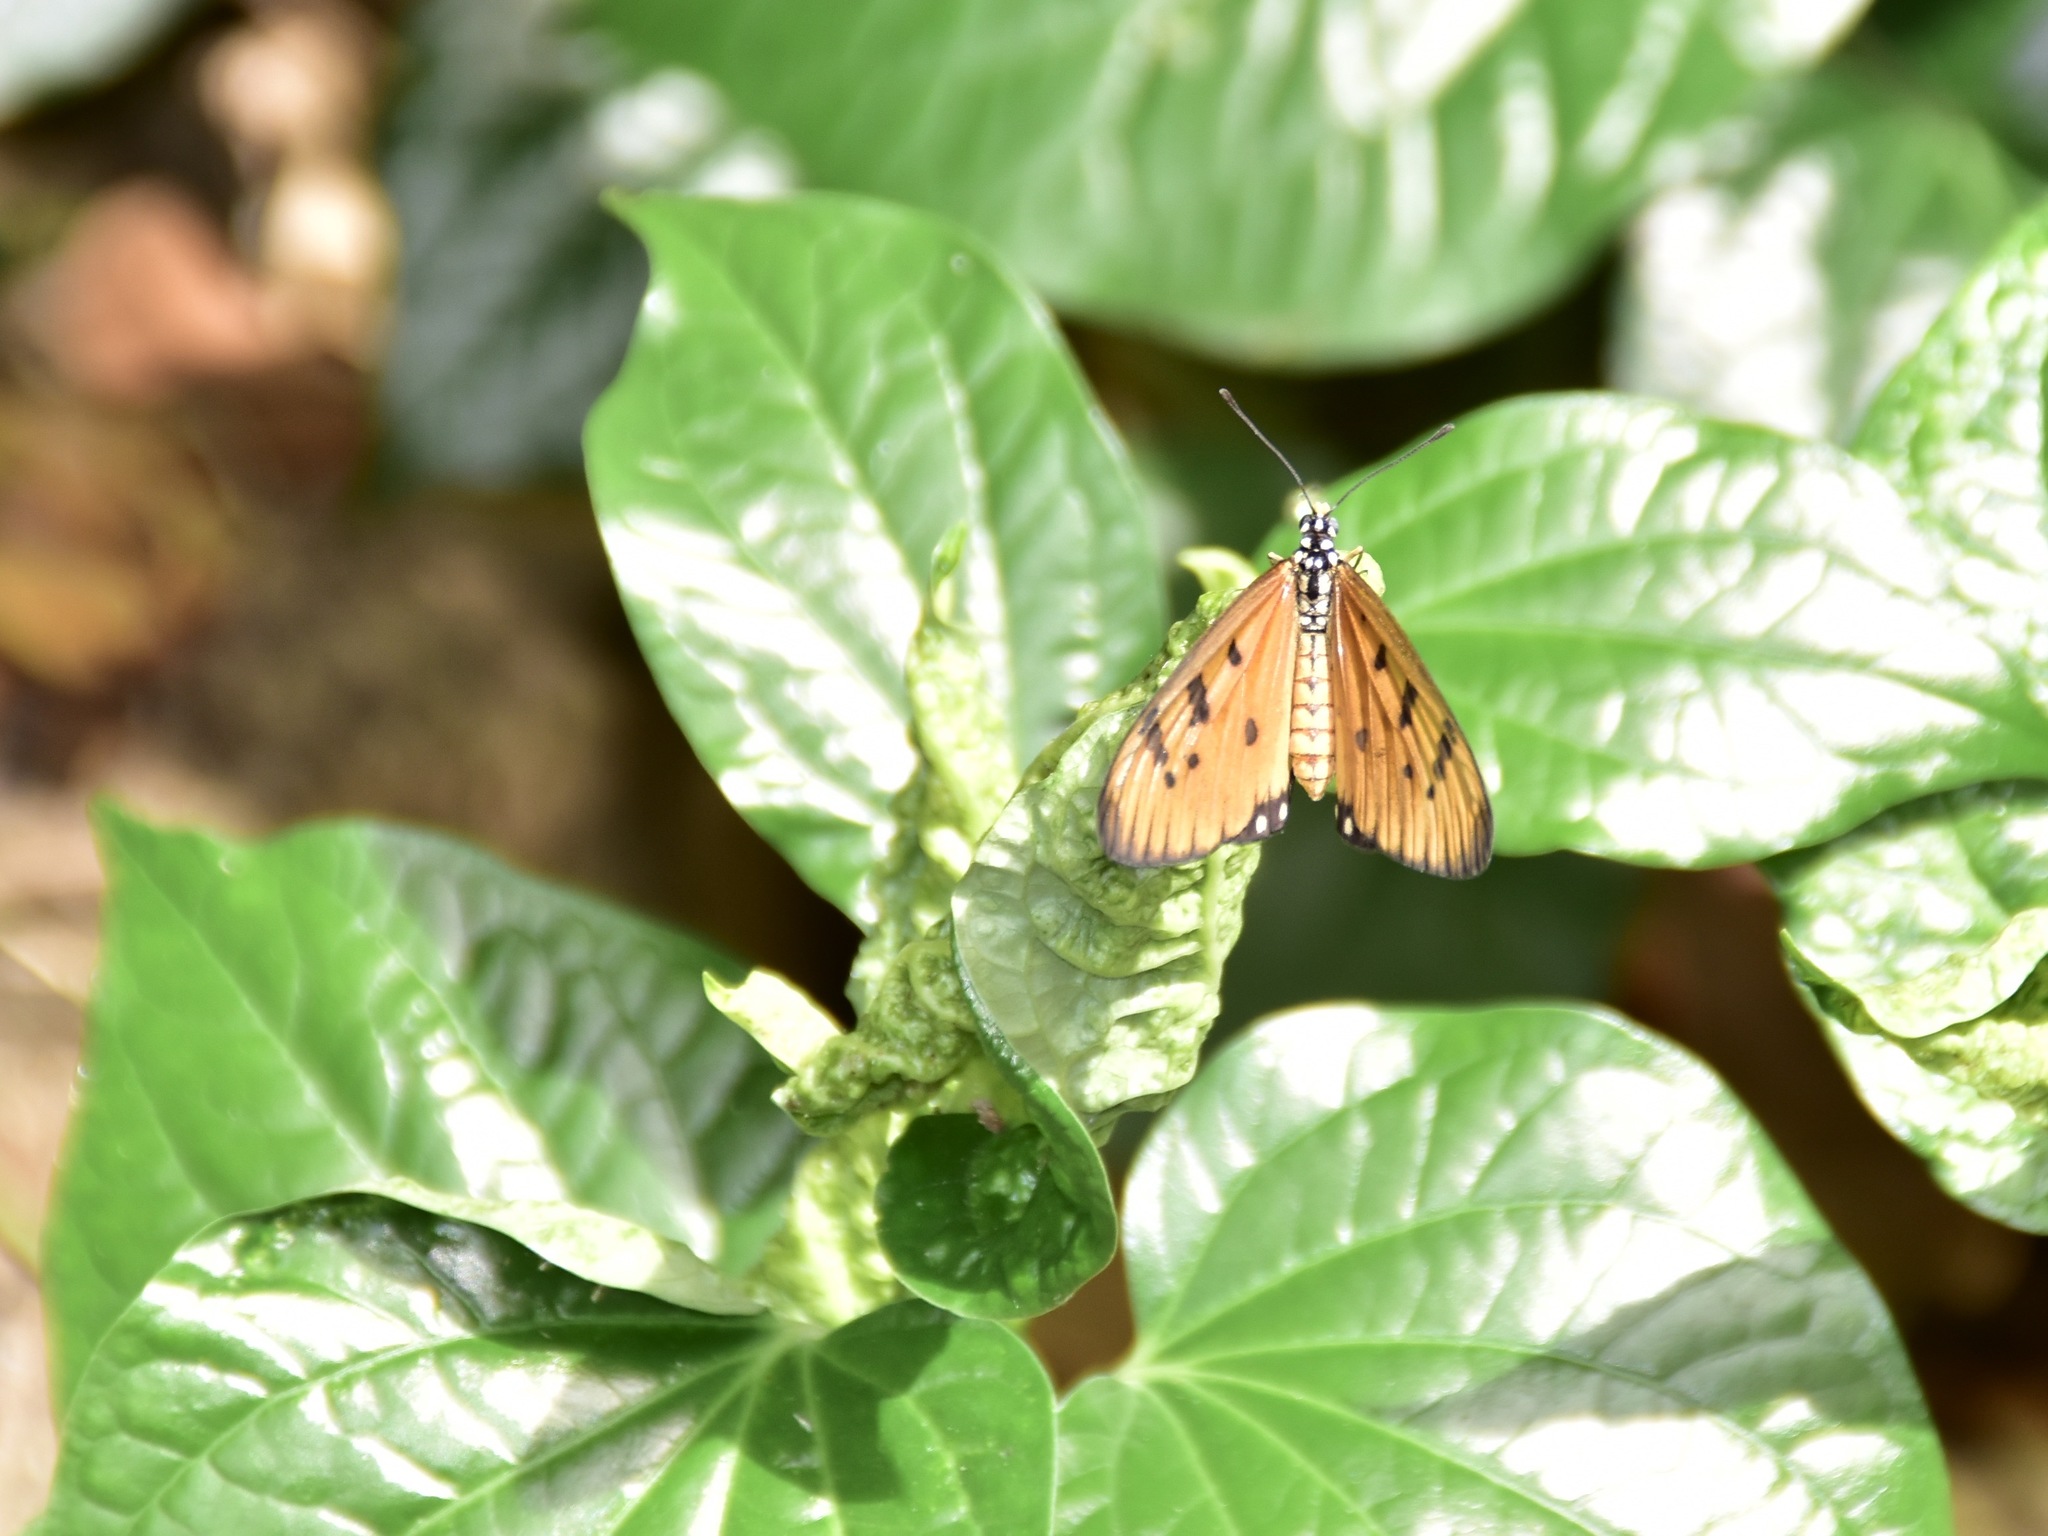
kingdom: Animalia
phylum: Arthropoda
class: Insecta
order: Lepidoptera
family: Nymphalidae
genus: Acraea
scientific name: Acraea terpsicore
